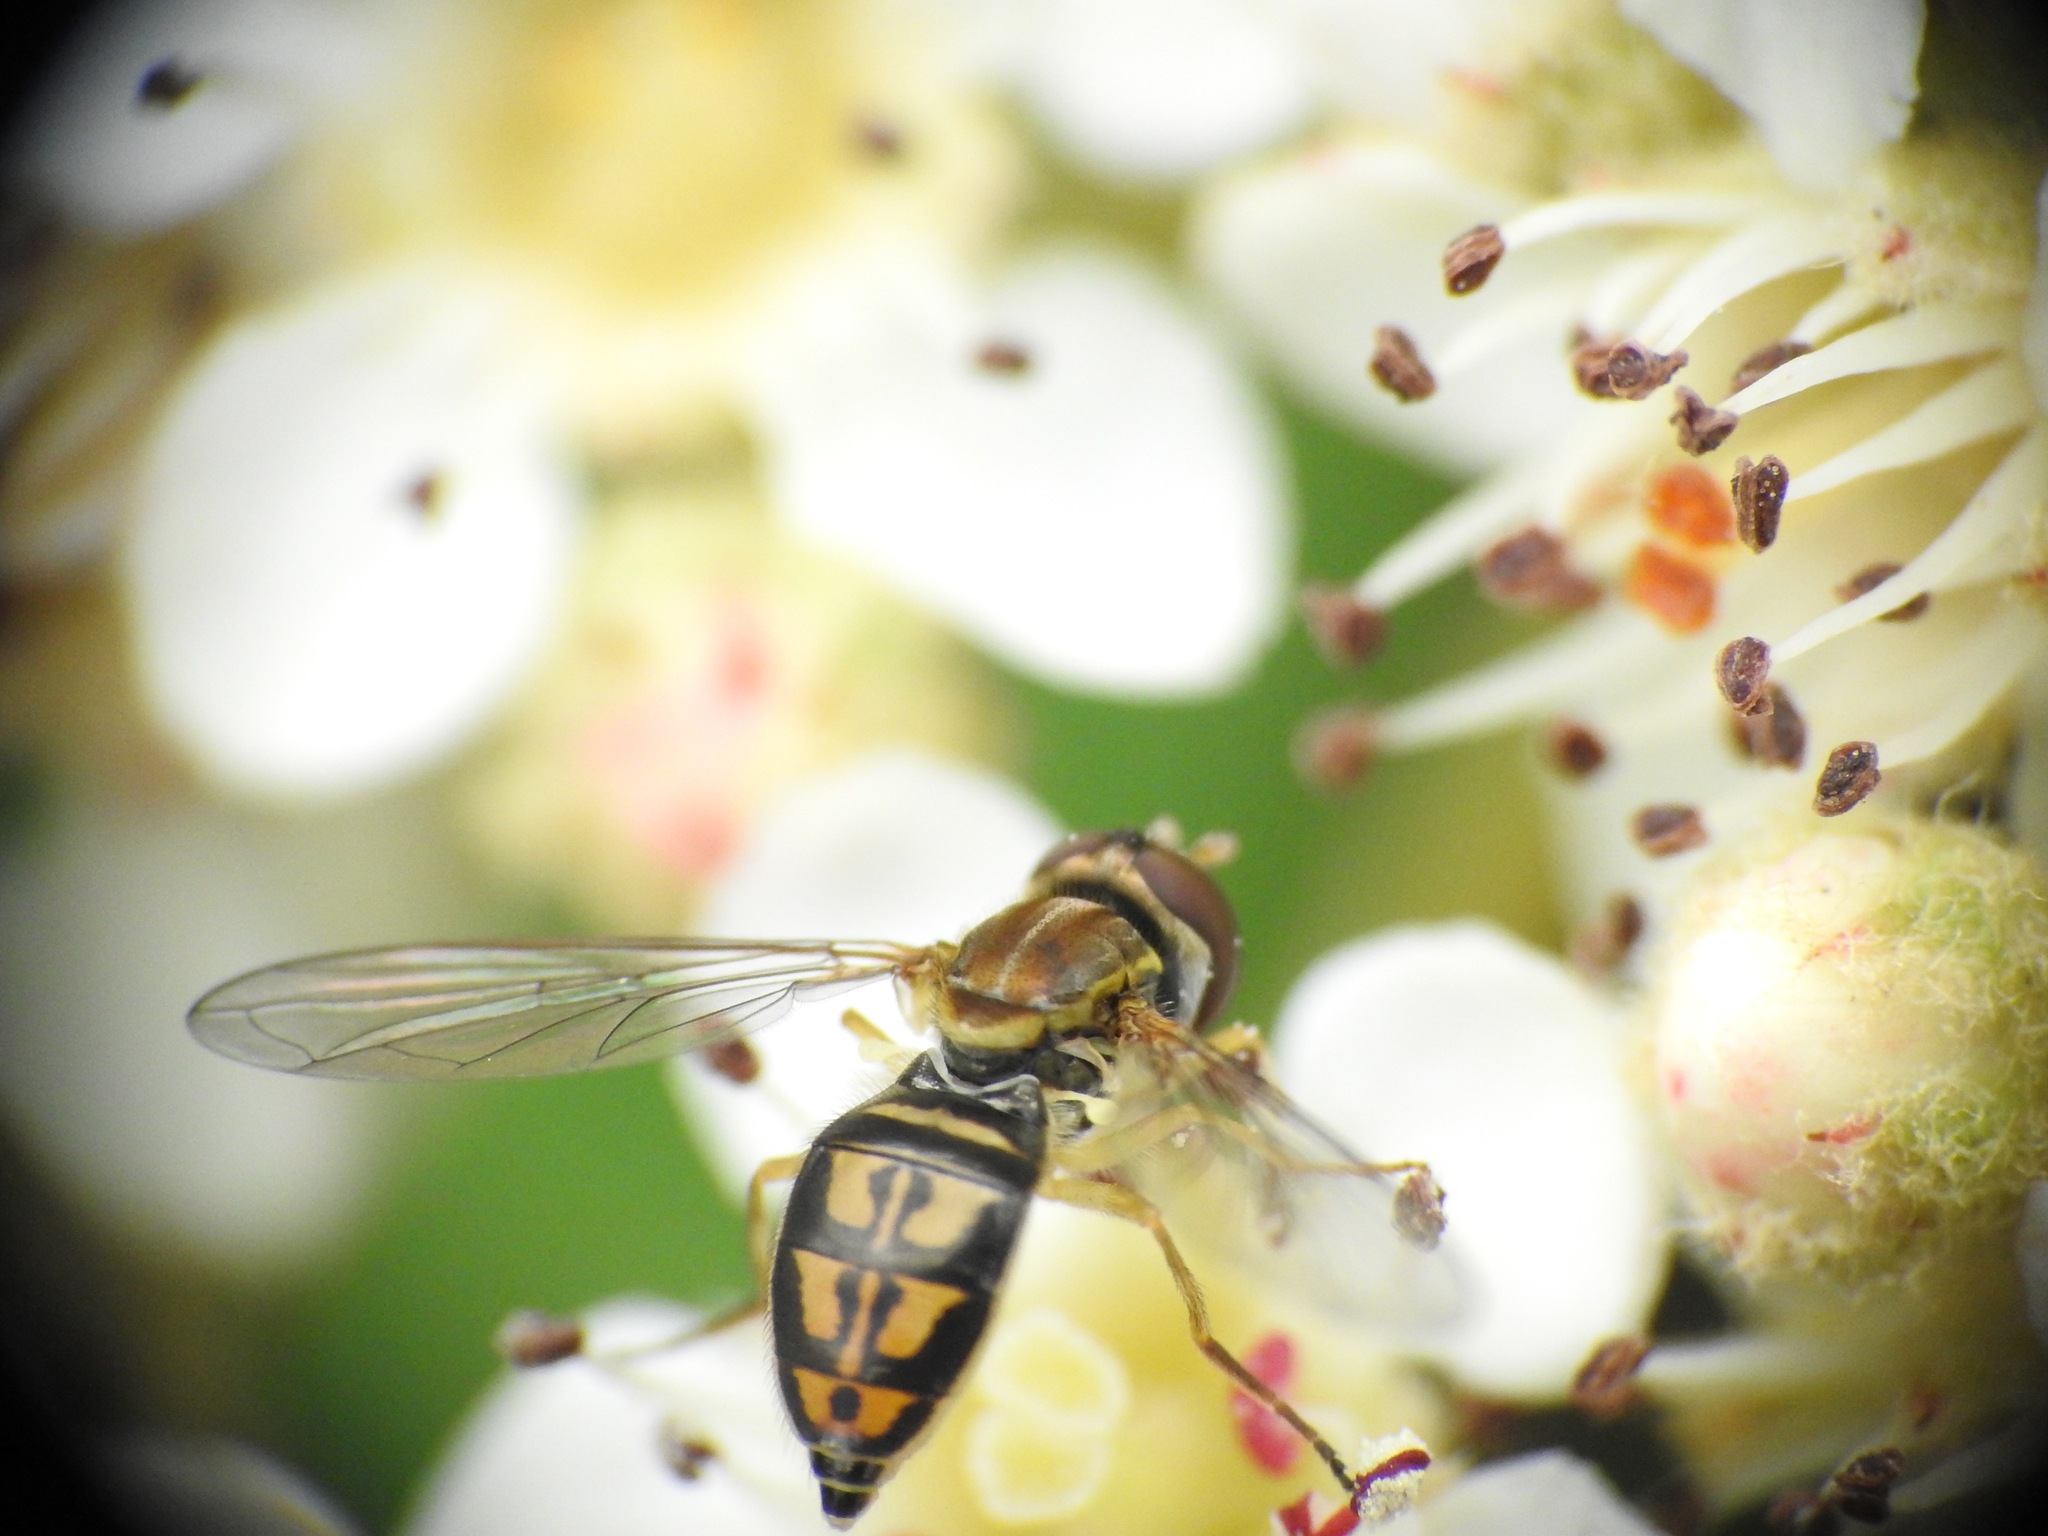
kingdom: Animalia
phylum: Arthropoda
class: Insecta
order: Diptera
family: Syrphidae
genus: Toxomerus
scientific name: Toxomerus marginatus
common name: Syrphid fly
